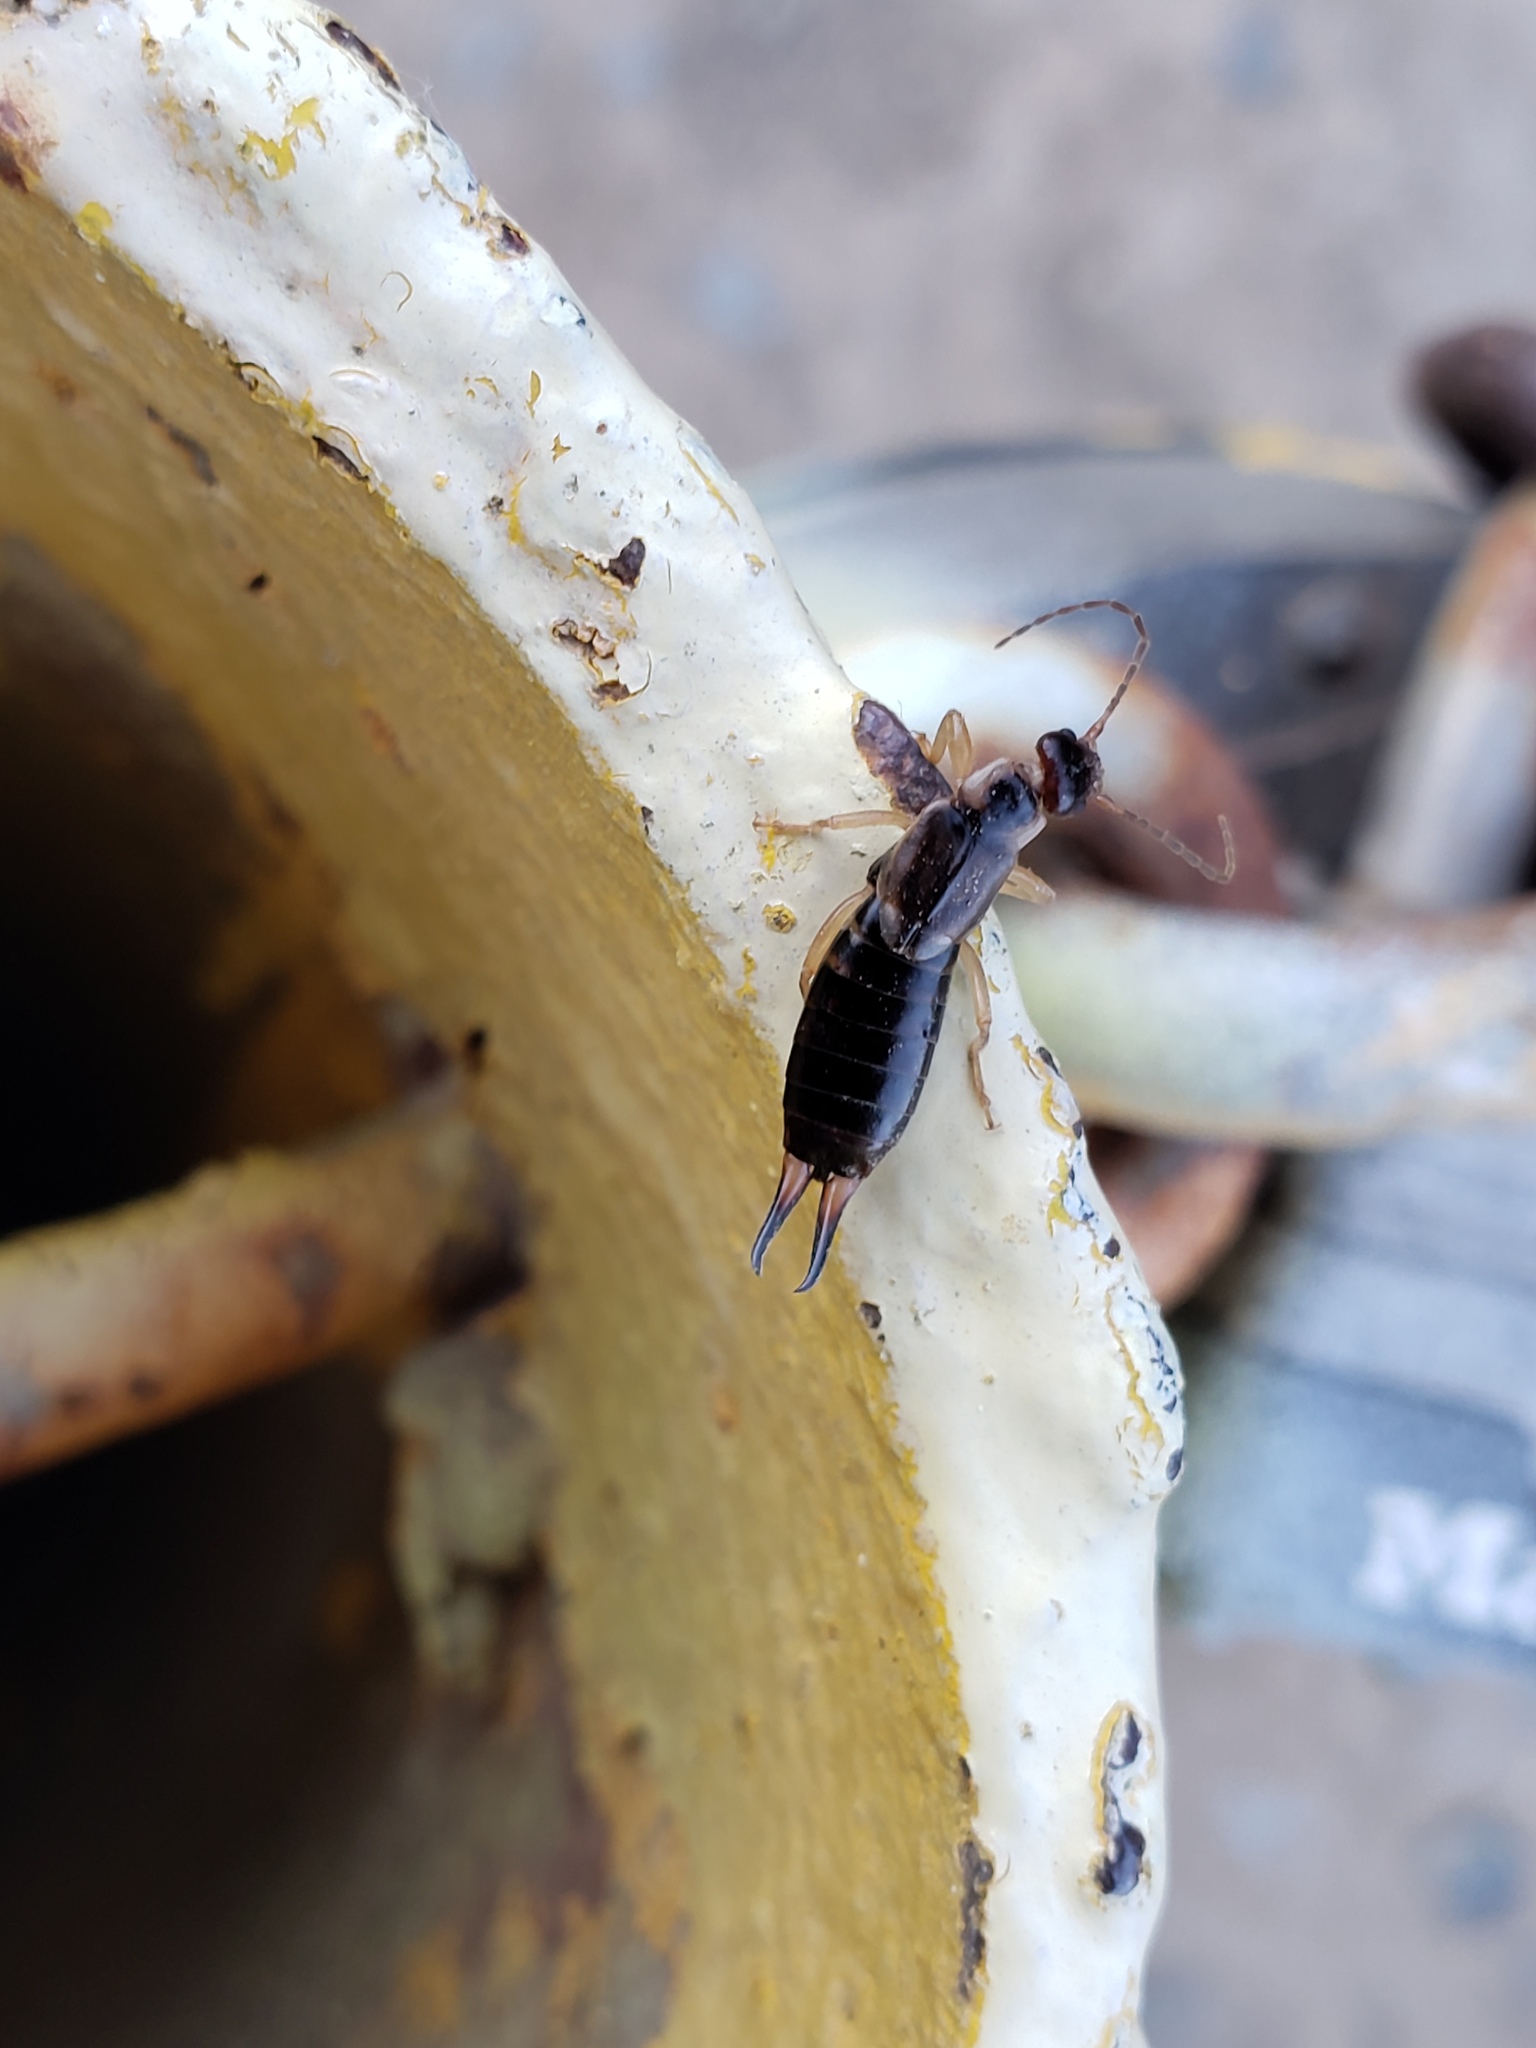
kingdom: Animalia
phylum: Arthropoda
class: Insecta
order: Dermaptera
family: Forficulidae
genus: Forficula
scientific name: Forficula
